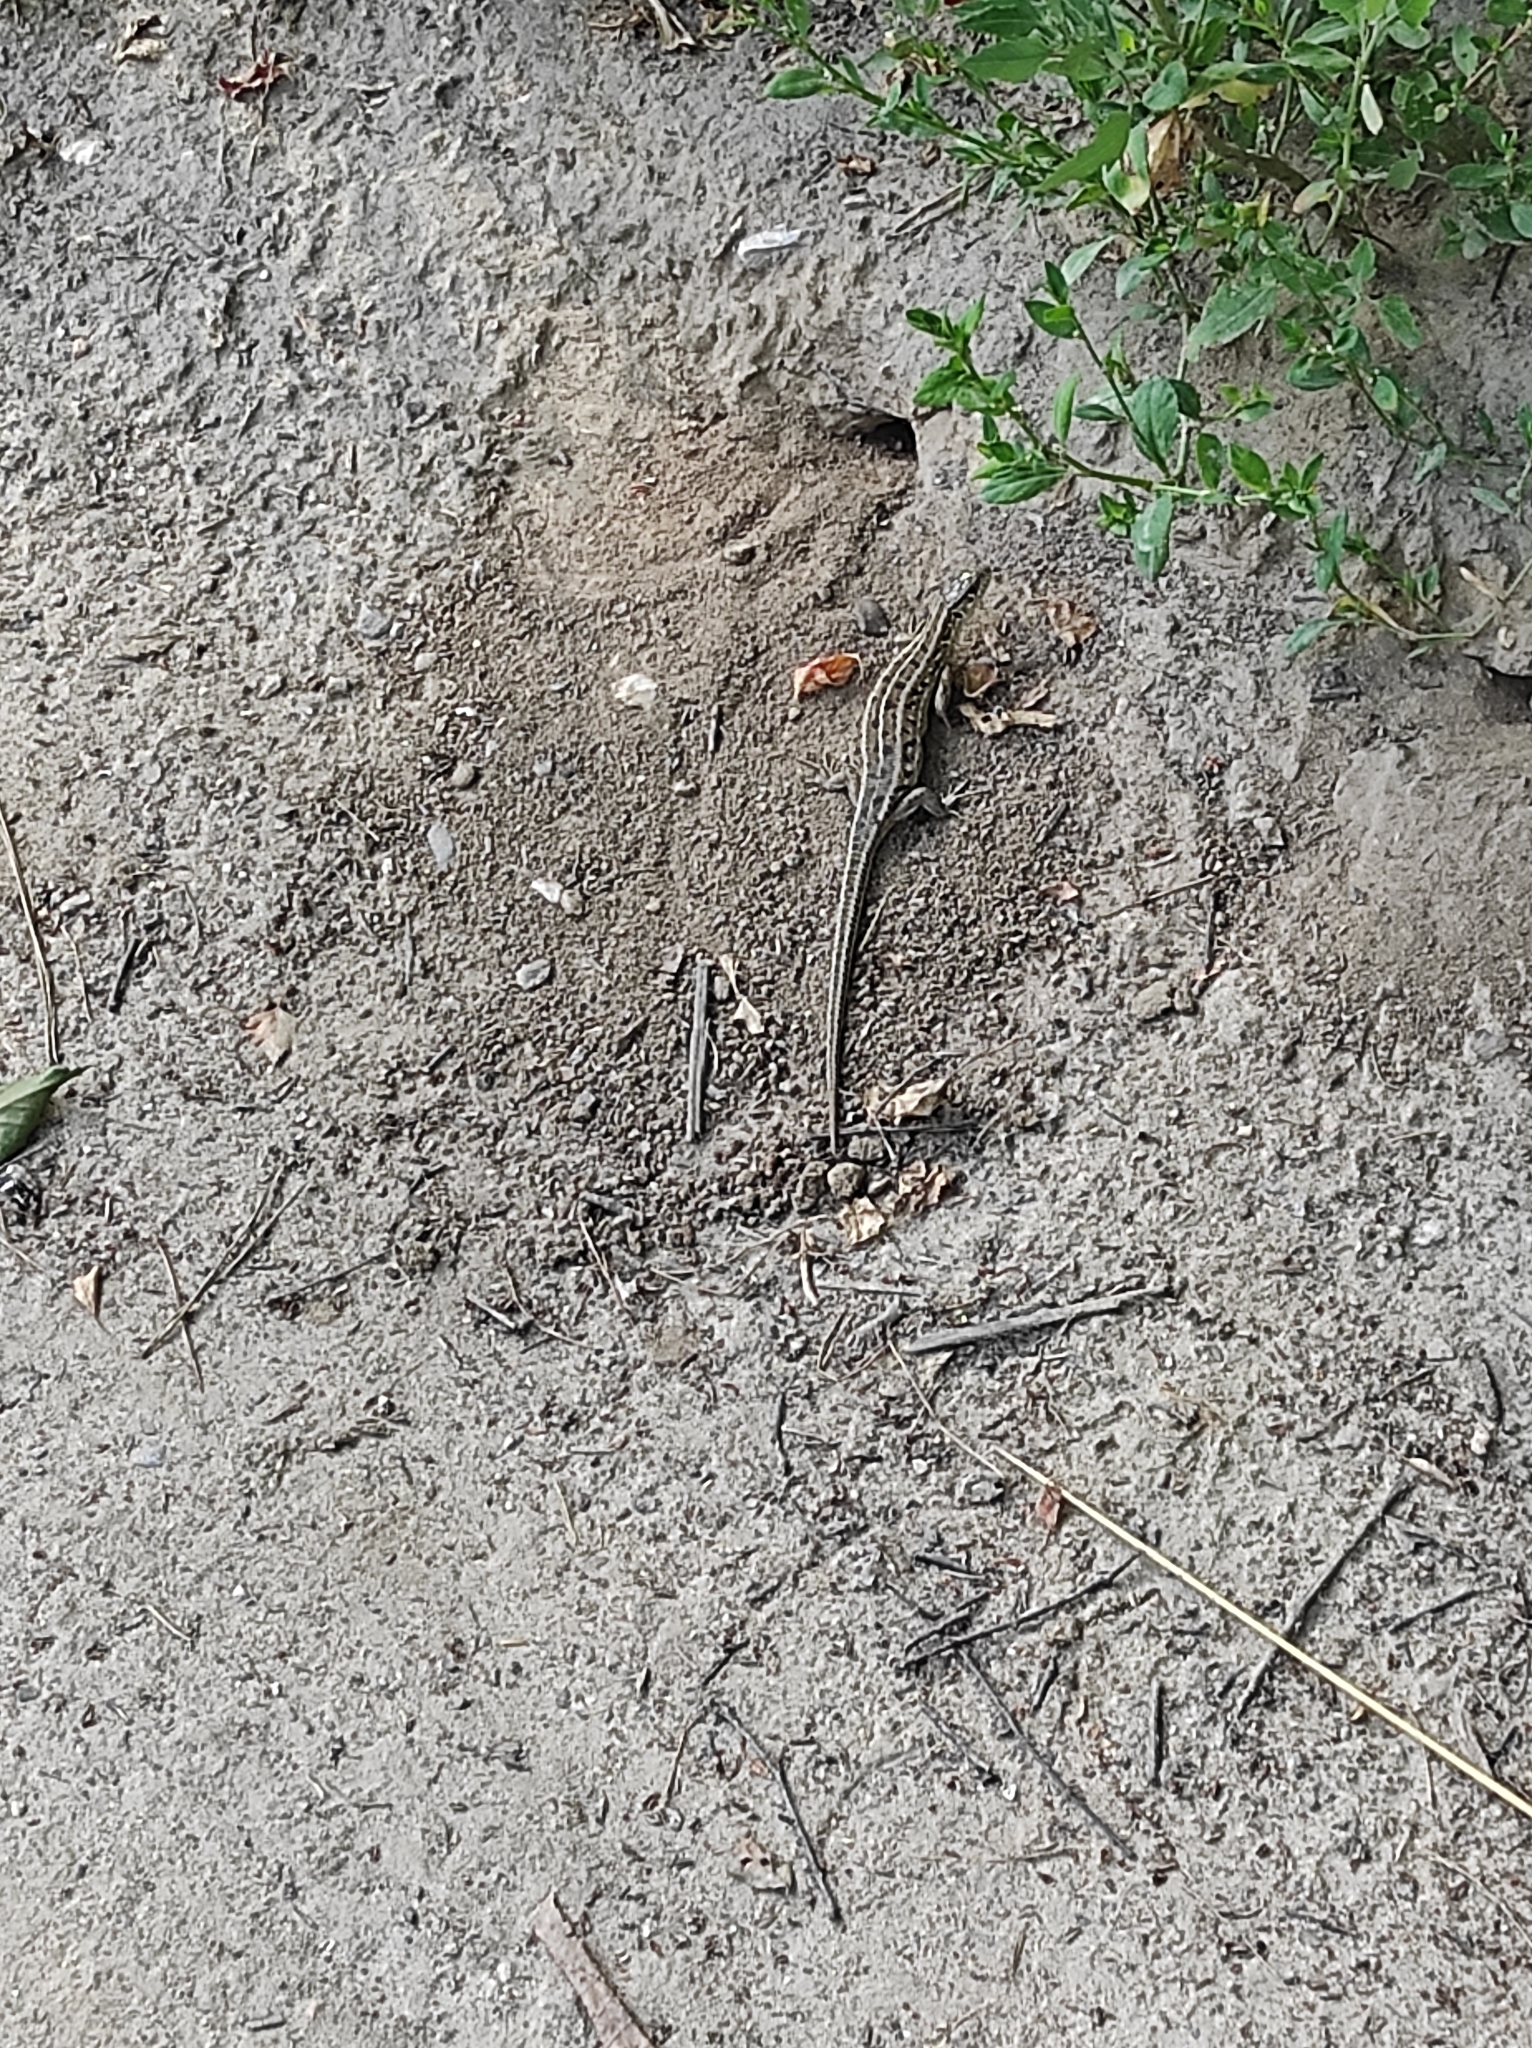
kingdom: Animalia
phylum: Chordata
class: Squamata
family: Lacertidae
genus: Lacerta
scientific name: Lacerta agilis
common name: Sand lizard
